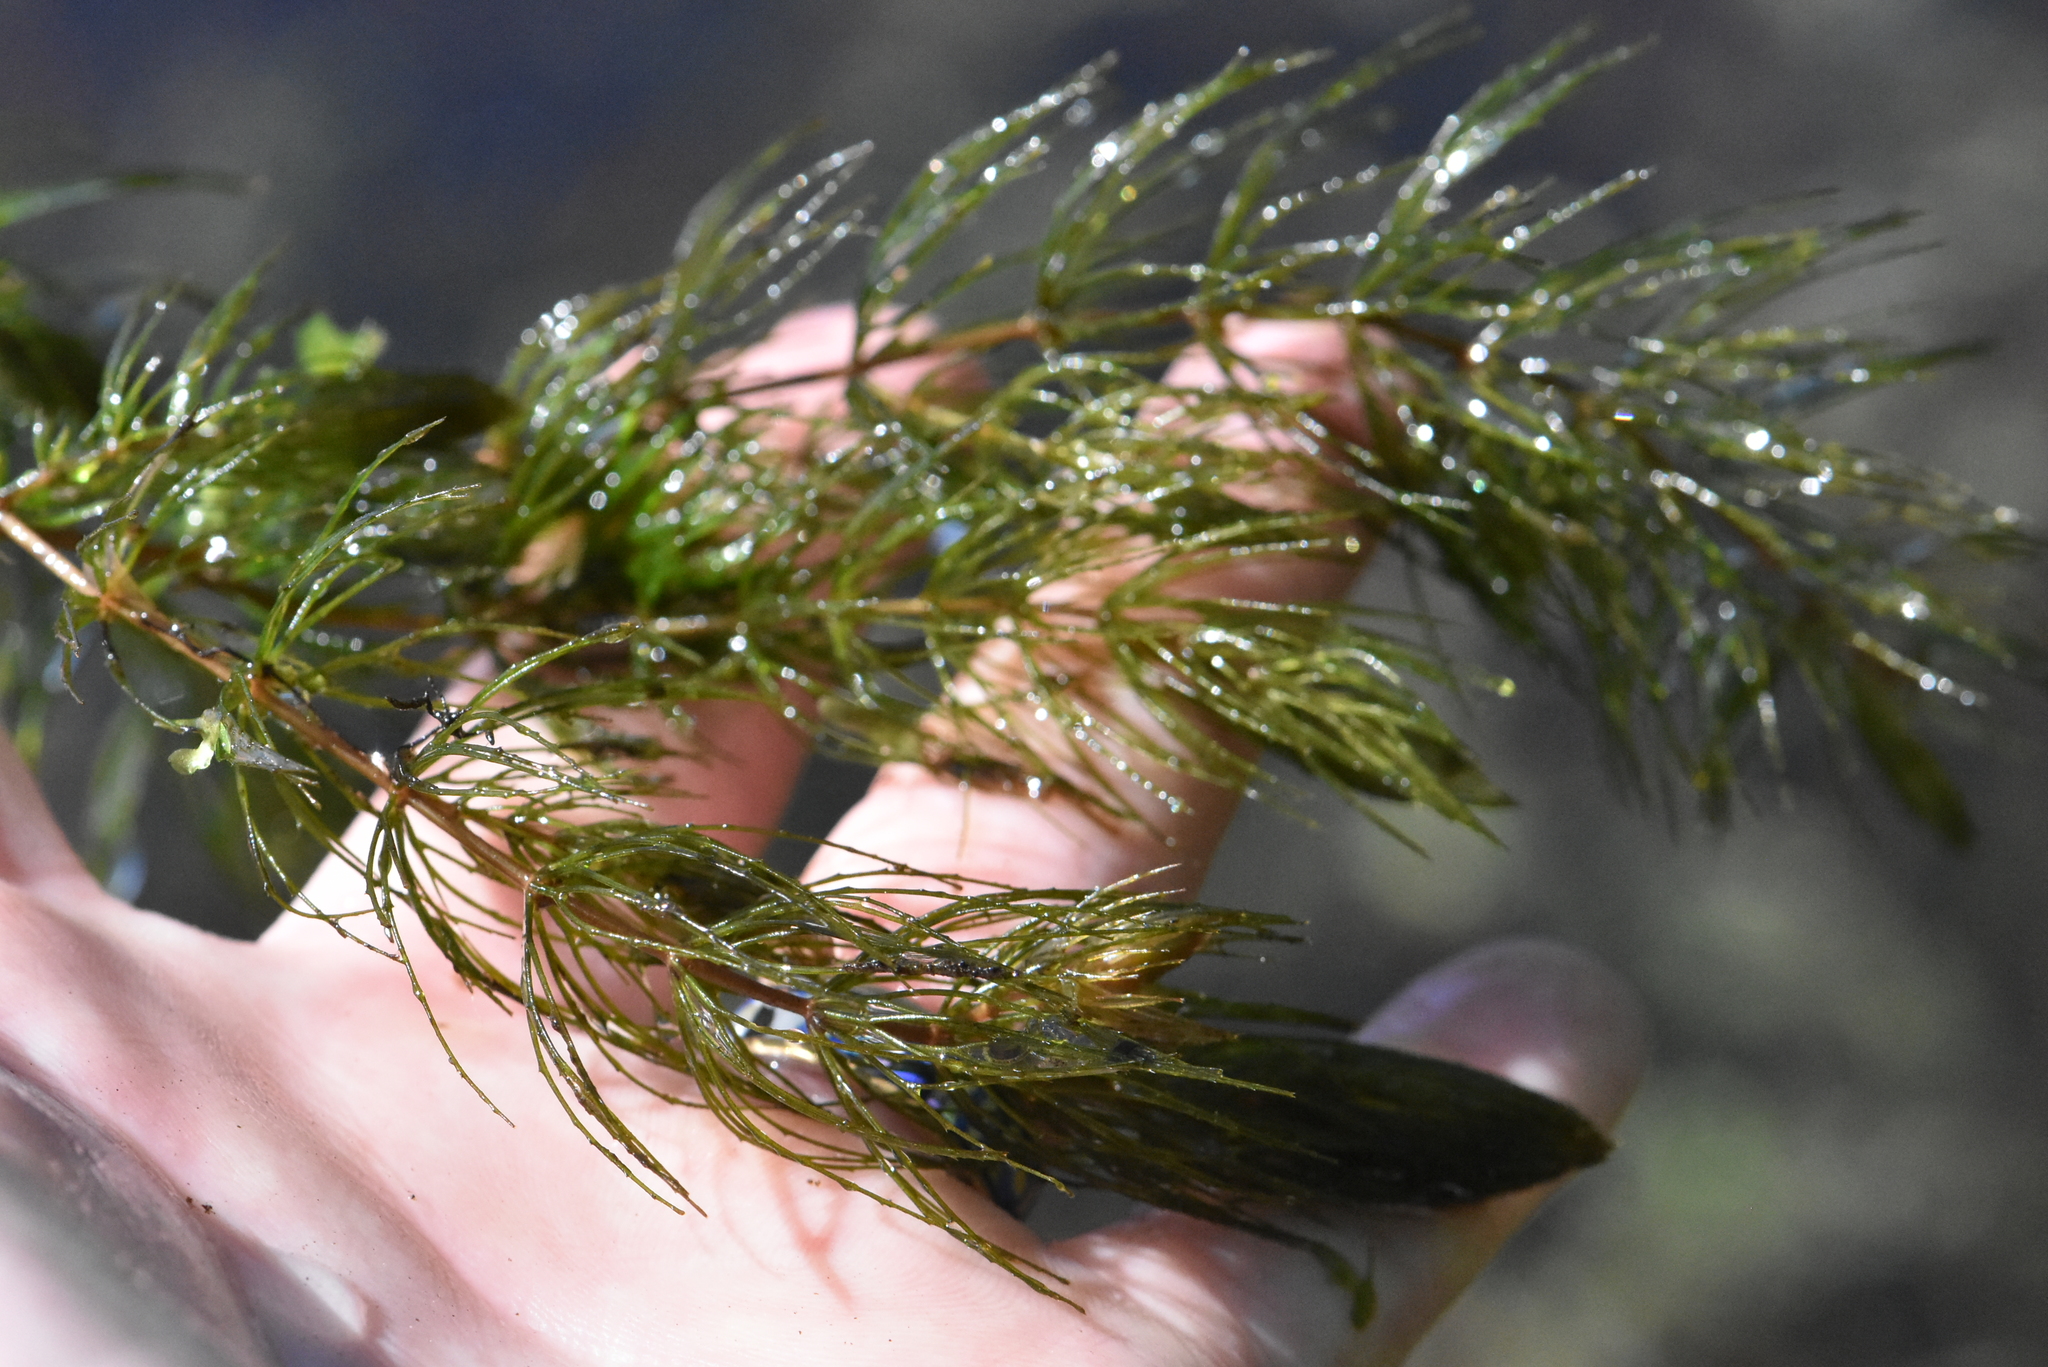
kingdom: Plantae
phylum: Tracheophyta
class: Magnoliopsida
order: Ceratophyllales
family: Ceratophyllaceae
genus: Ceratophyllum
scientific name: Ceratophyllum demersum
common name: Rigid hornwort
